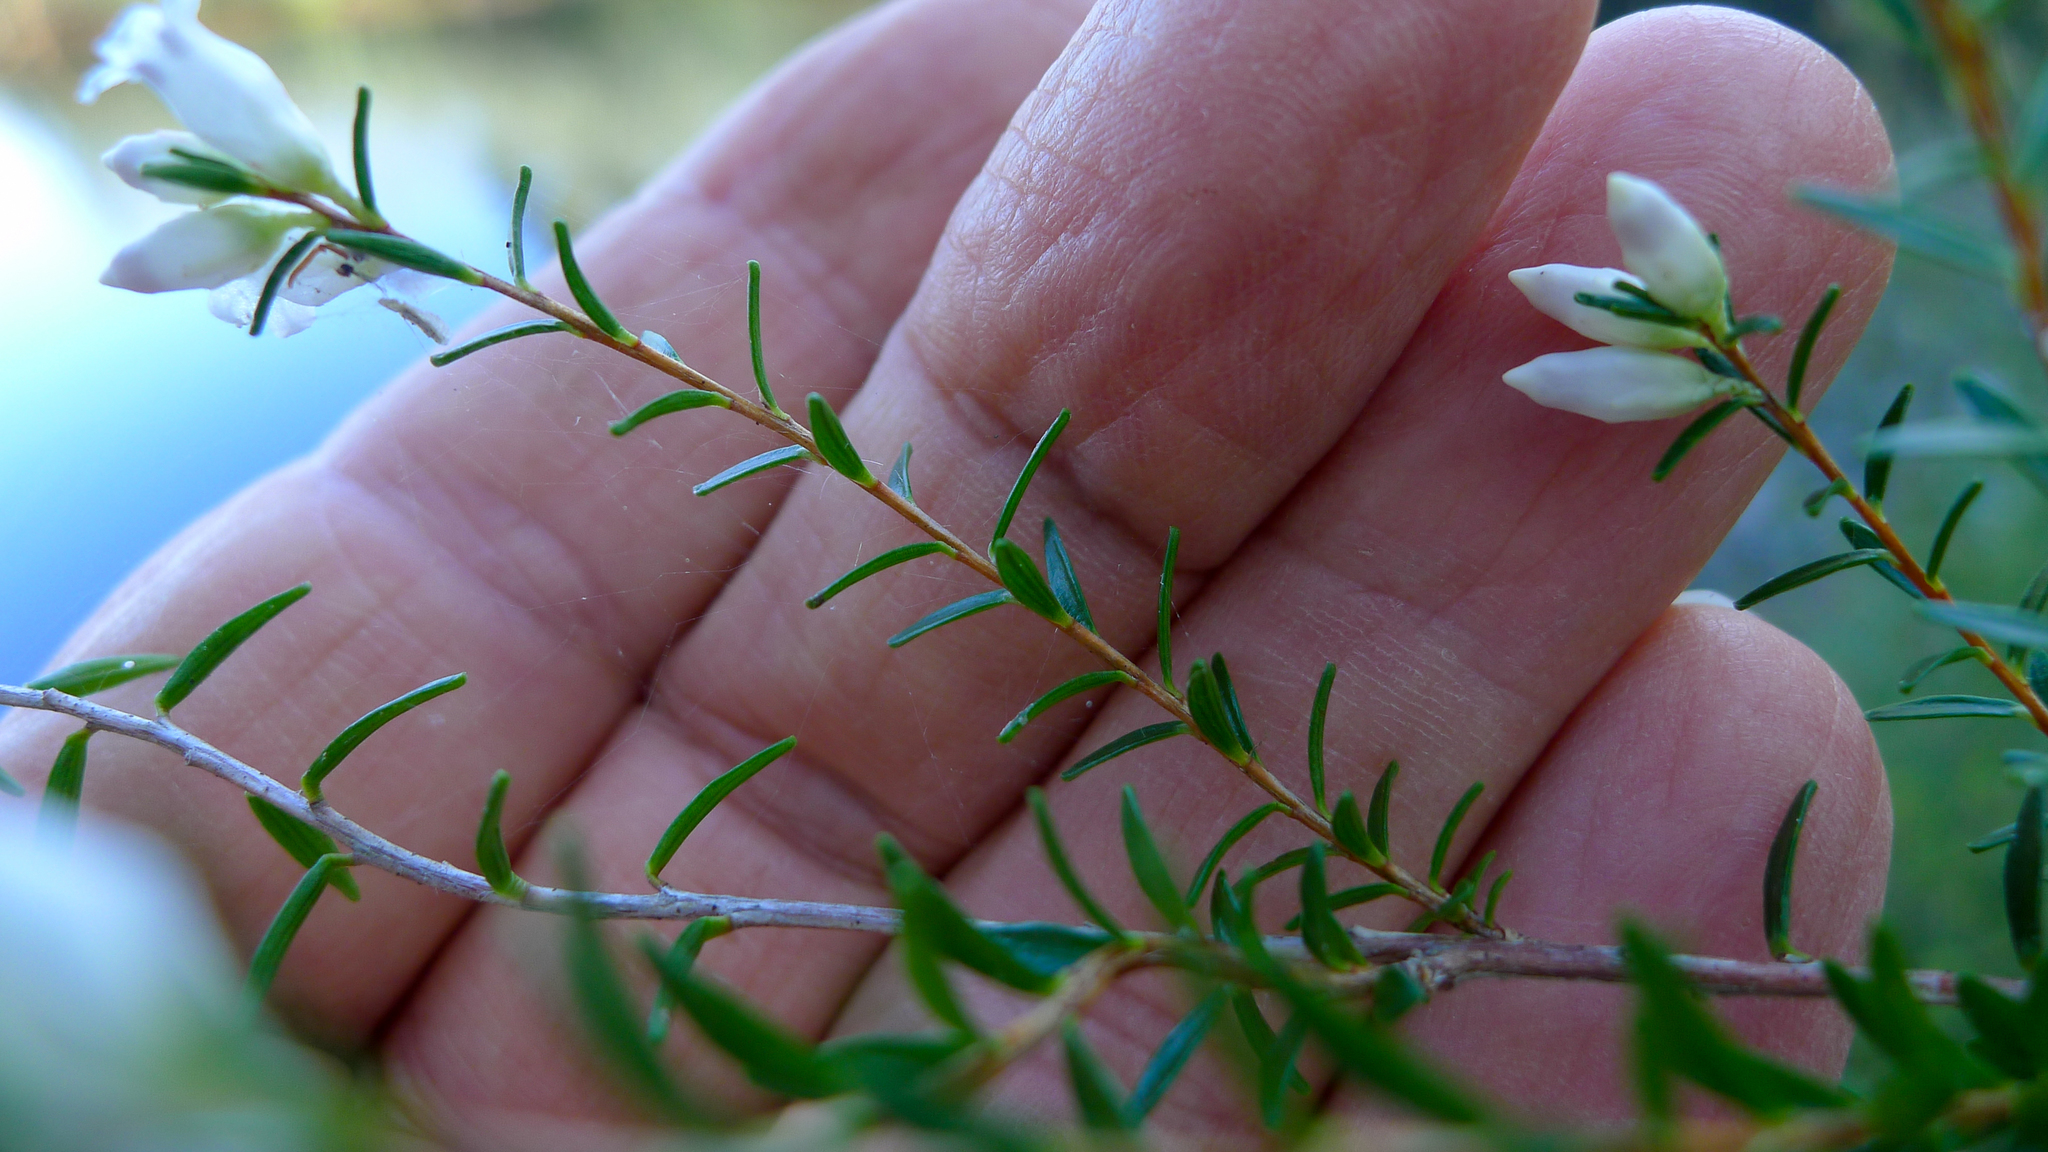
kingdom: Plantae
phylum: Tracheophyta
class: Magnoliopsida
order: Ericales
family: Ericaceae
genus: Epacris
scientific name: Epacris obtusifolia
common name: Blunt-leaf australian-heath
